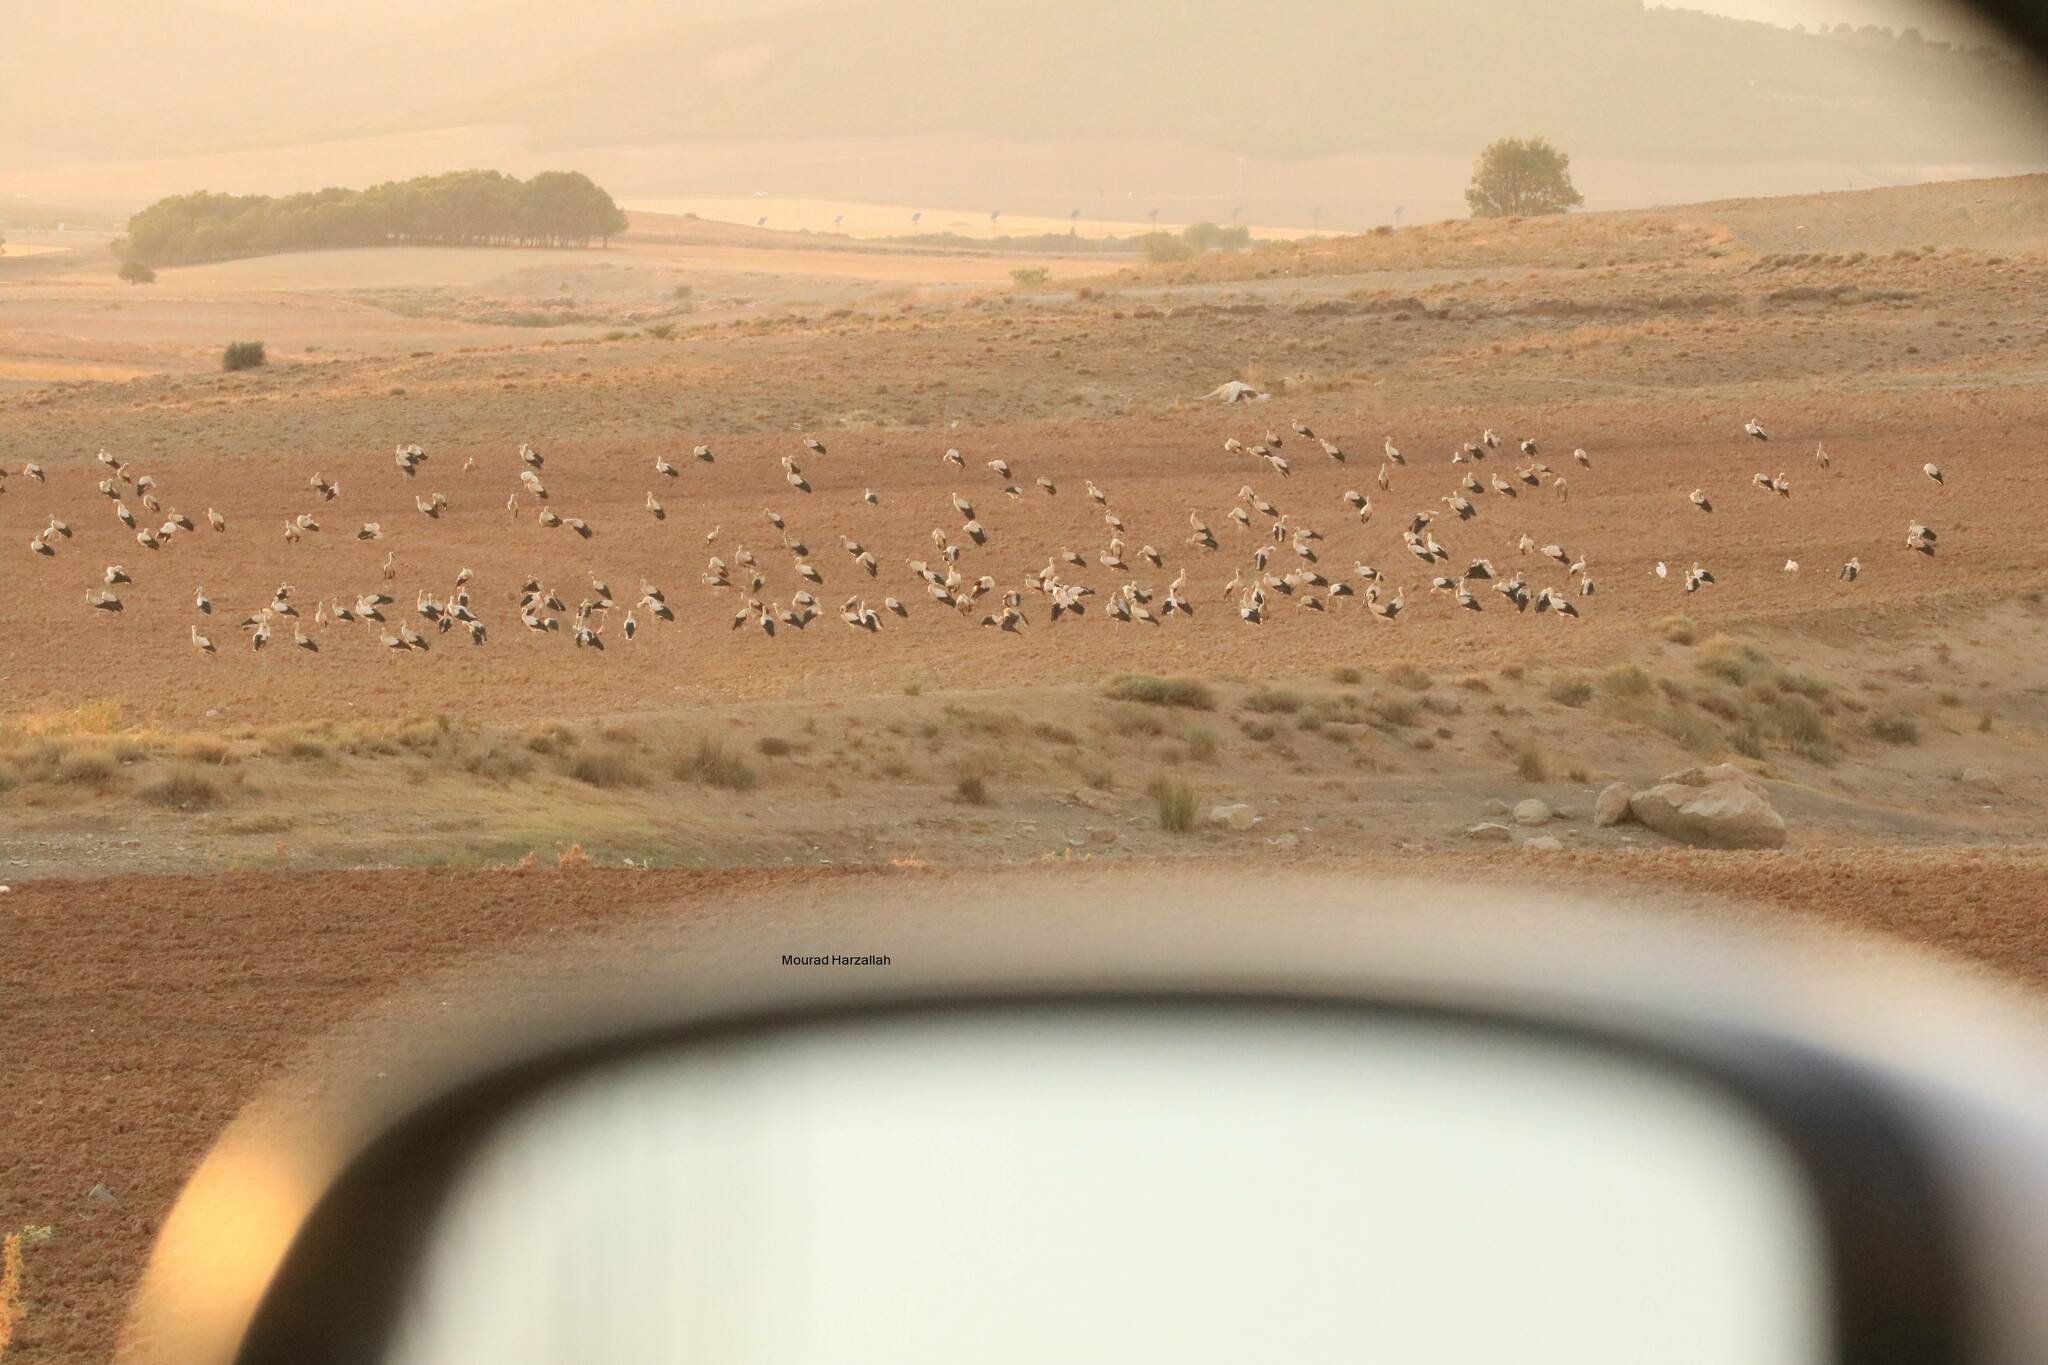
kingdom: Animalia
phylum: Chordata
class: Aves
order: Ciconiiformes
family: Ciconiidae
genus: Ciconia
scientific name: Ciconia ciconia
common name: White stork
